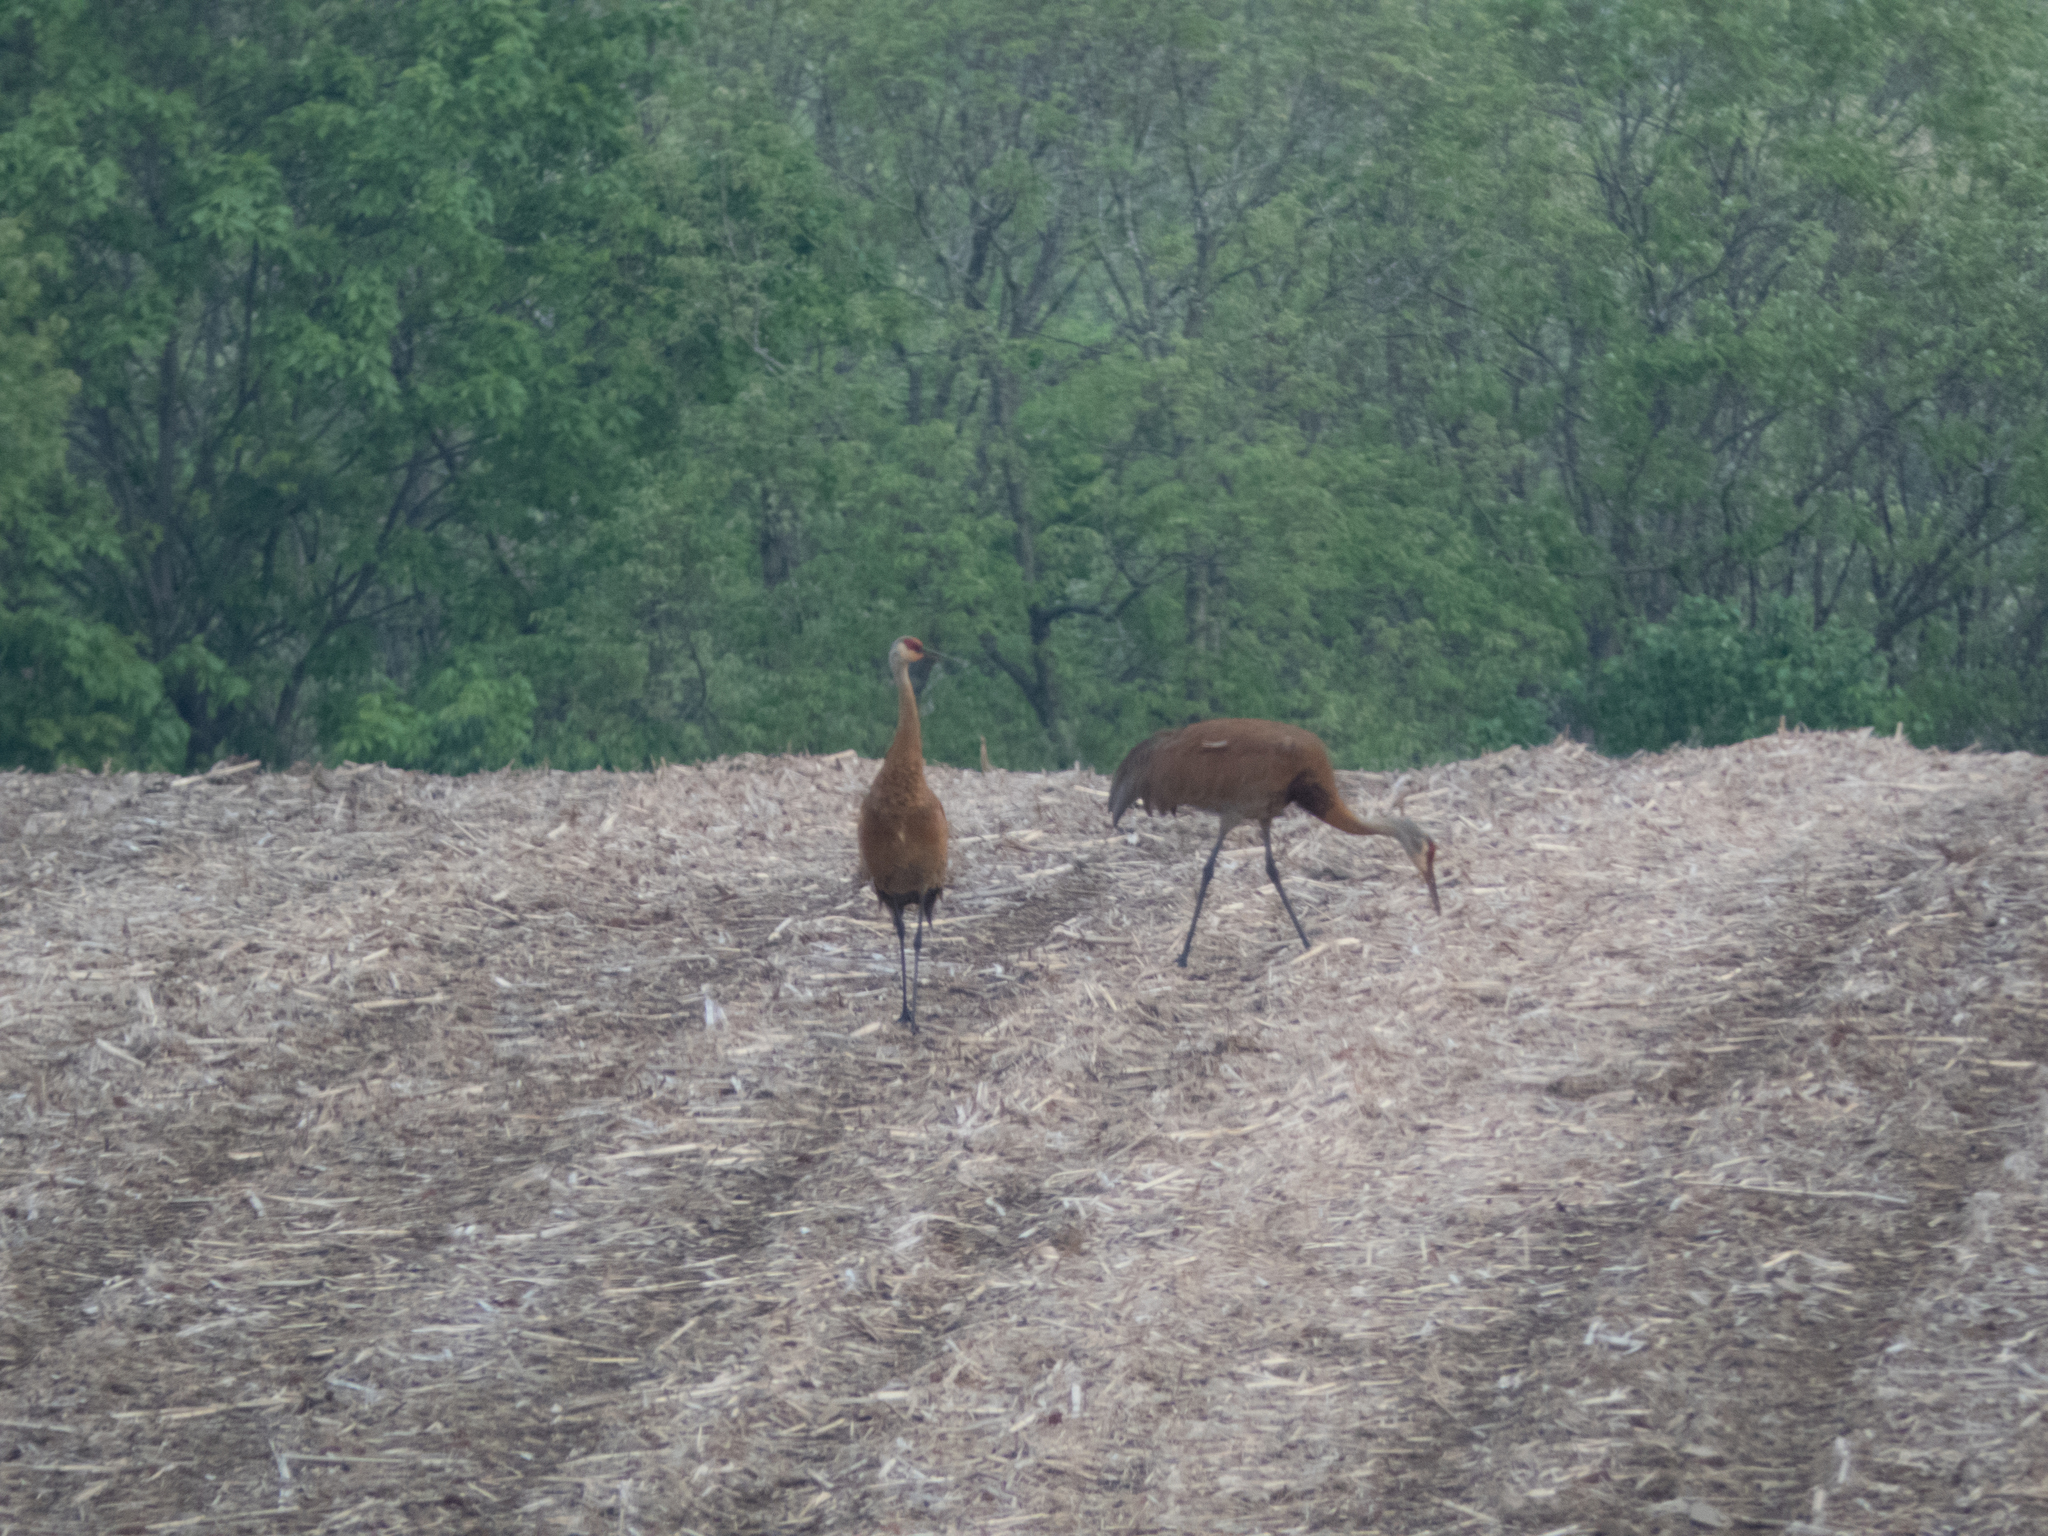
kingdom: Animalia
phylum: Chordata
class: Aves
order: Gruiformes
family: Gruidae
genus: Grus
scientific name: Grus canadensis
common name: Sandhill crane
